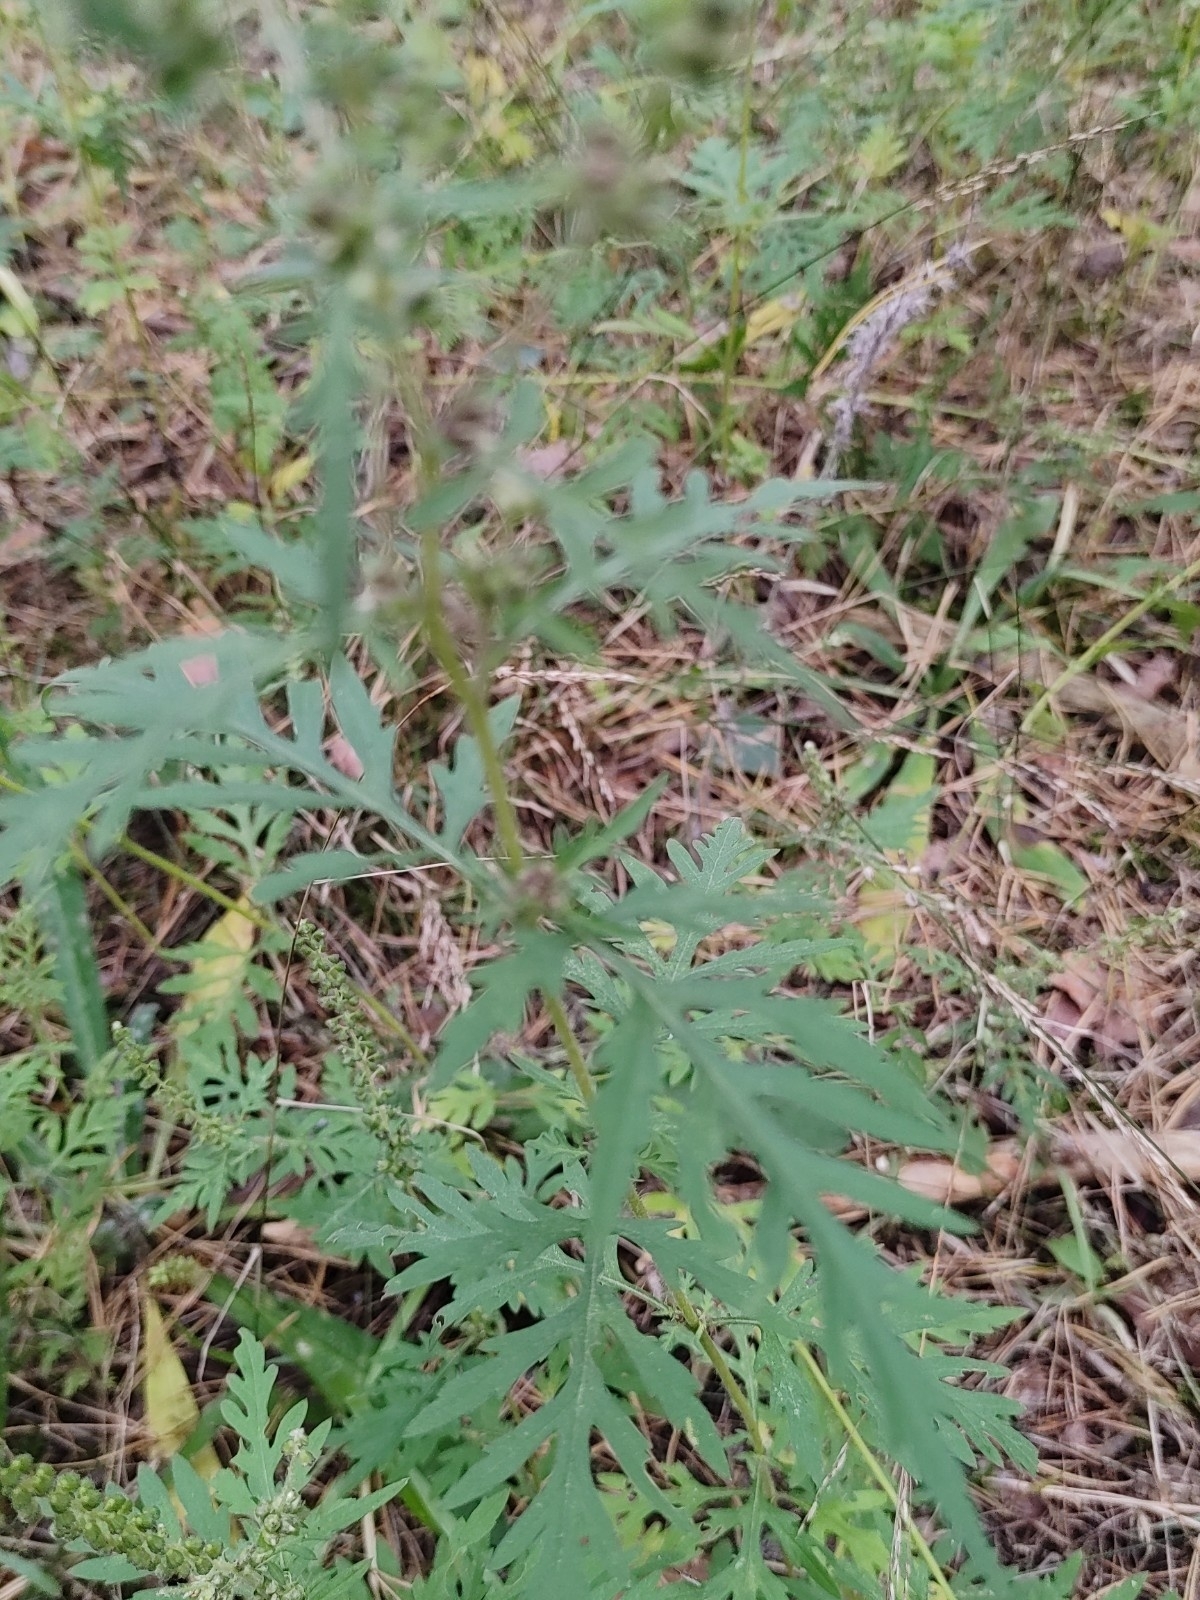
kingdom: Plantae
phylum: Tracheophyta
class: Magnoliopsida
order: Asterales
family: Asteraceae
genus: Ambrosia
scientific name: Ambrosia artemisiifolia
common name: Annual ragweed
